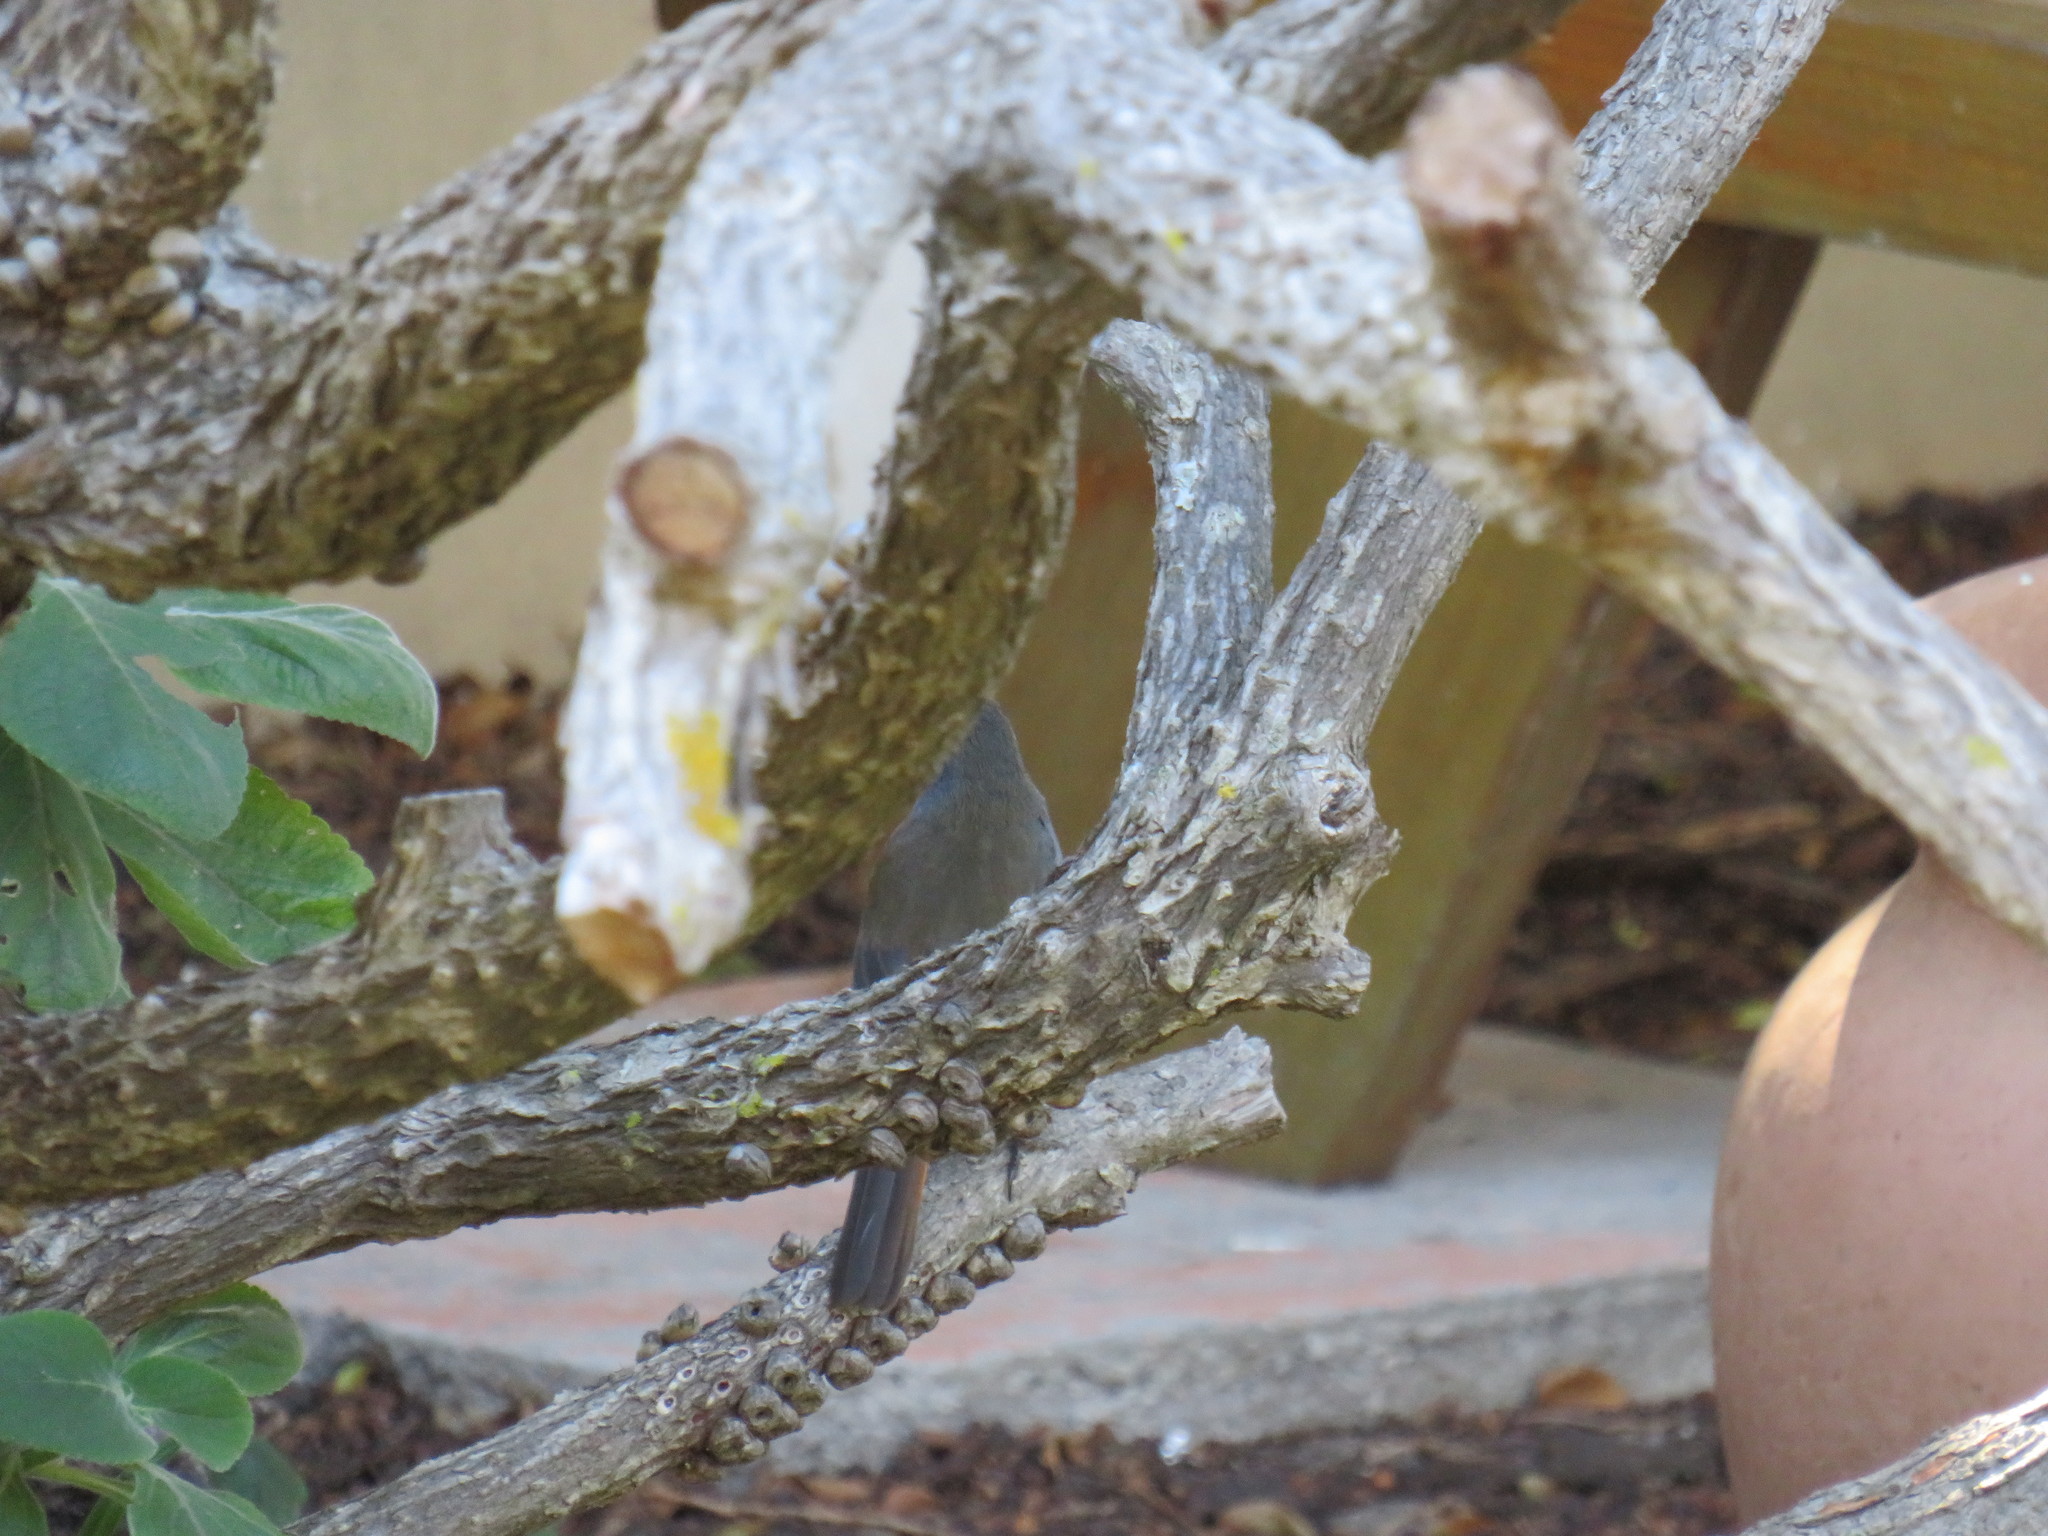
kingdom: Animalia
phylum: Chordata
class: Aves
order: Passeriformes
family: Muscicapidae
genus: Cossypha
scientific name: Cossypha caffra
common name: Cape robin-chat
